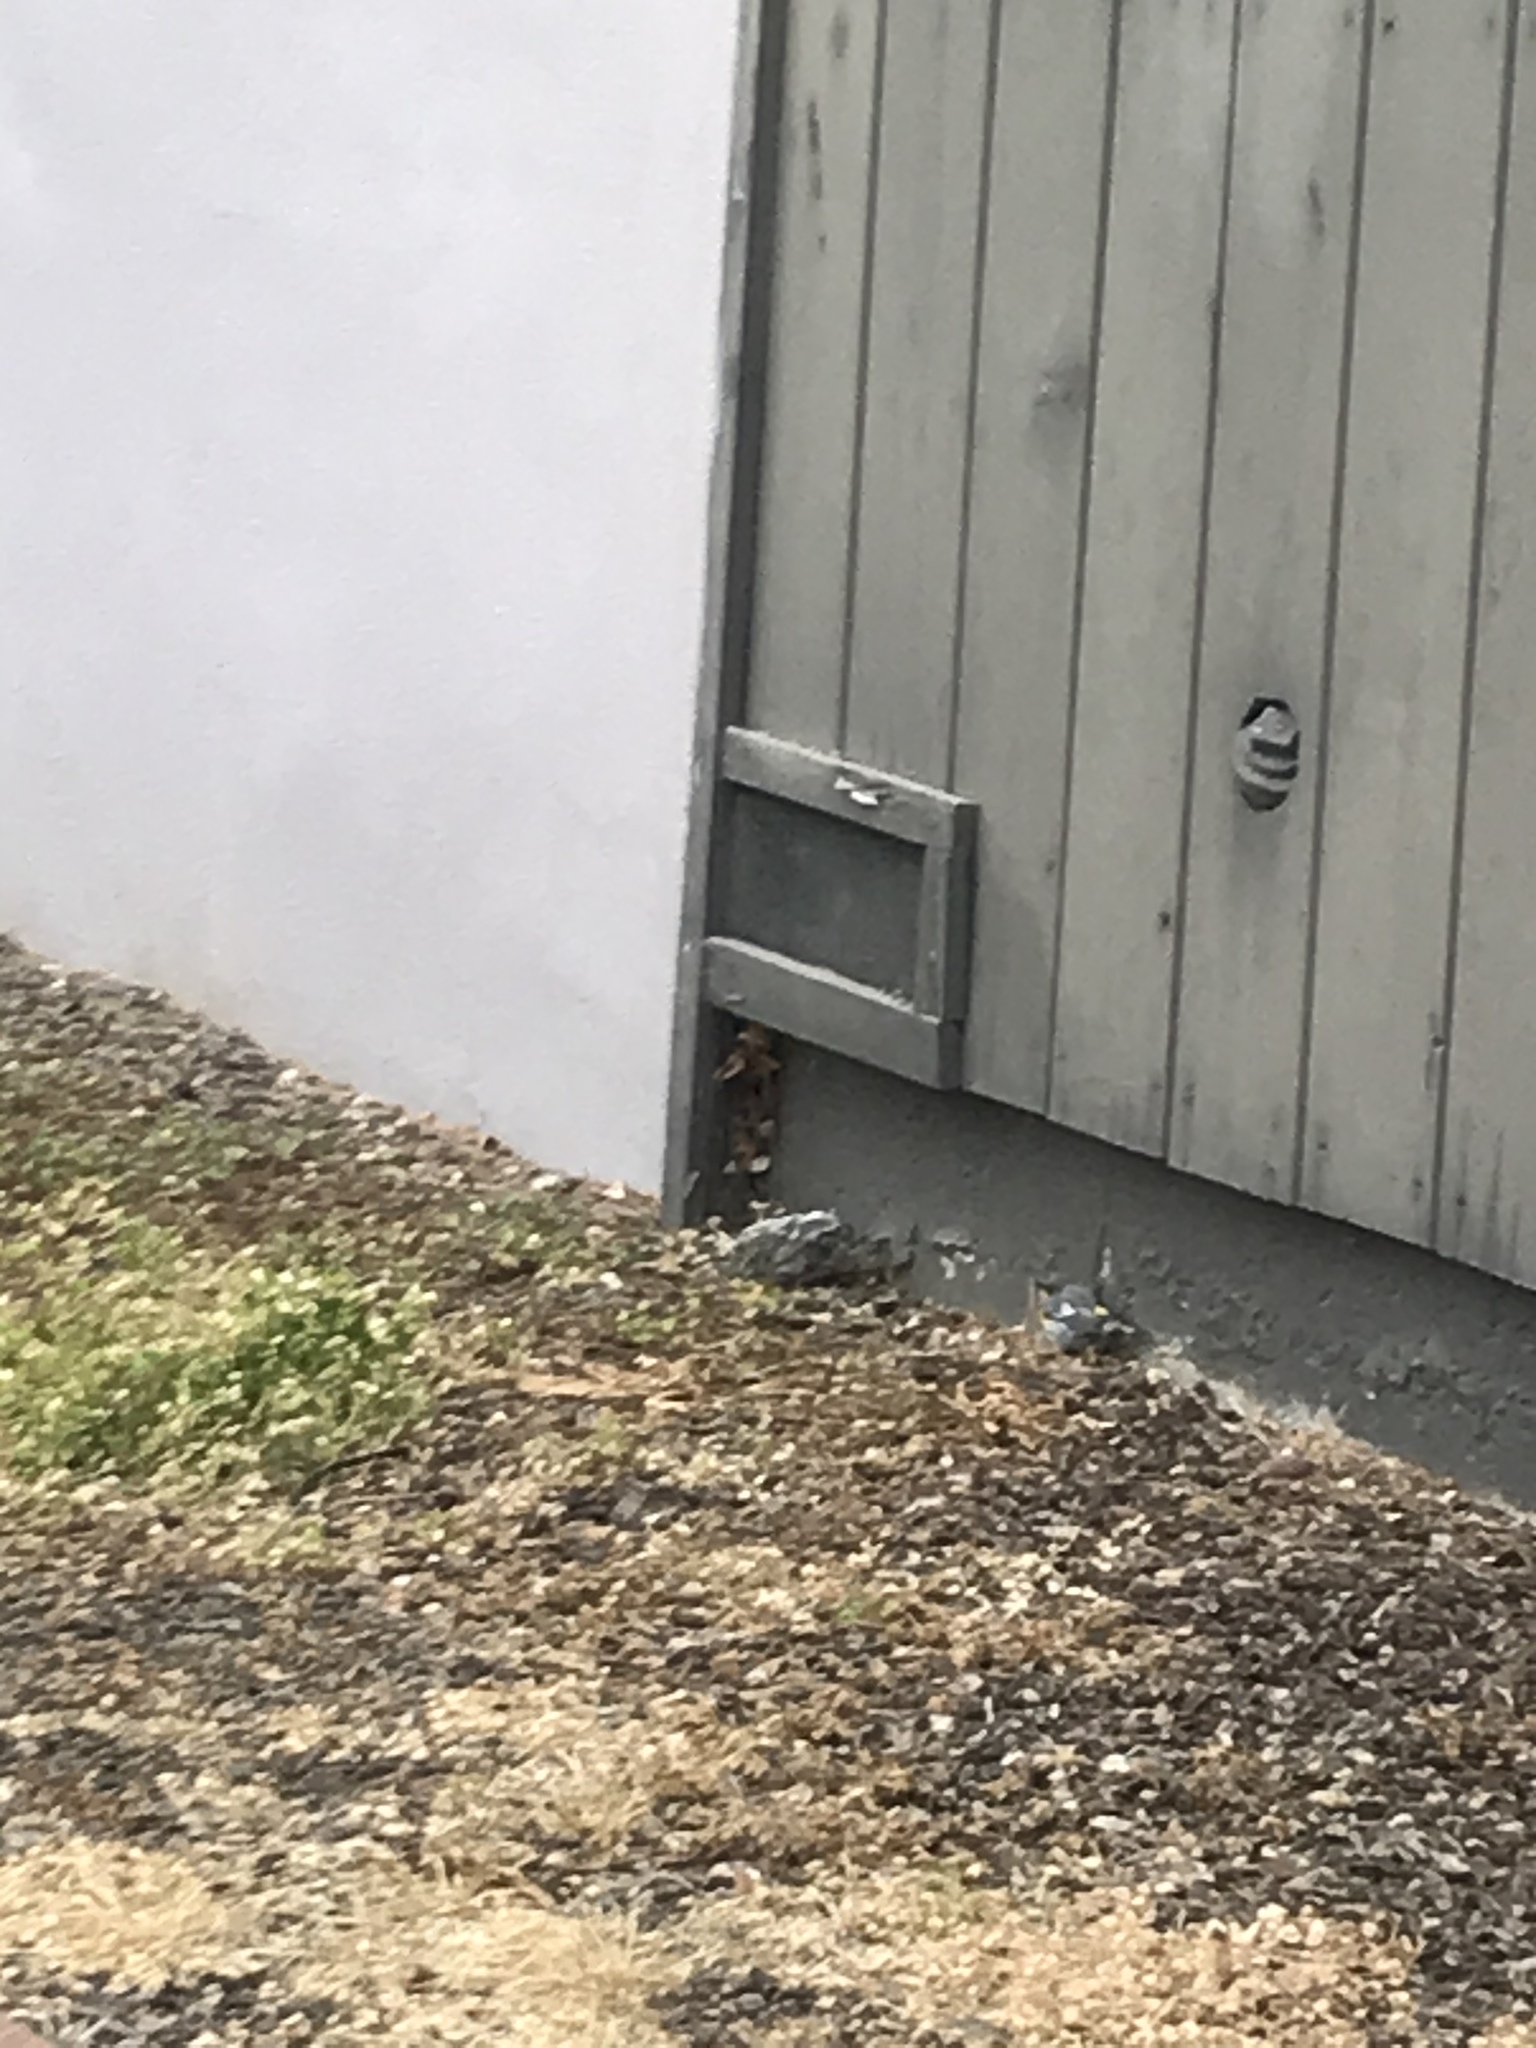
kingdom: Animalia
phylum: Chordata
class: Aves
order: Passeriformes
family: Parulidae
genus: Setophaga
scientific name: Setophaga coronata
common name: Myrtle warbler
